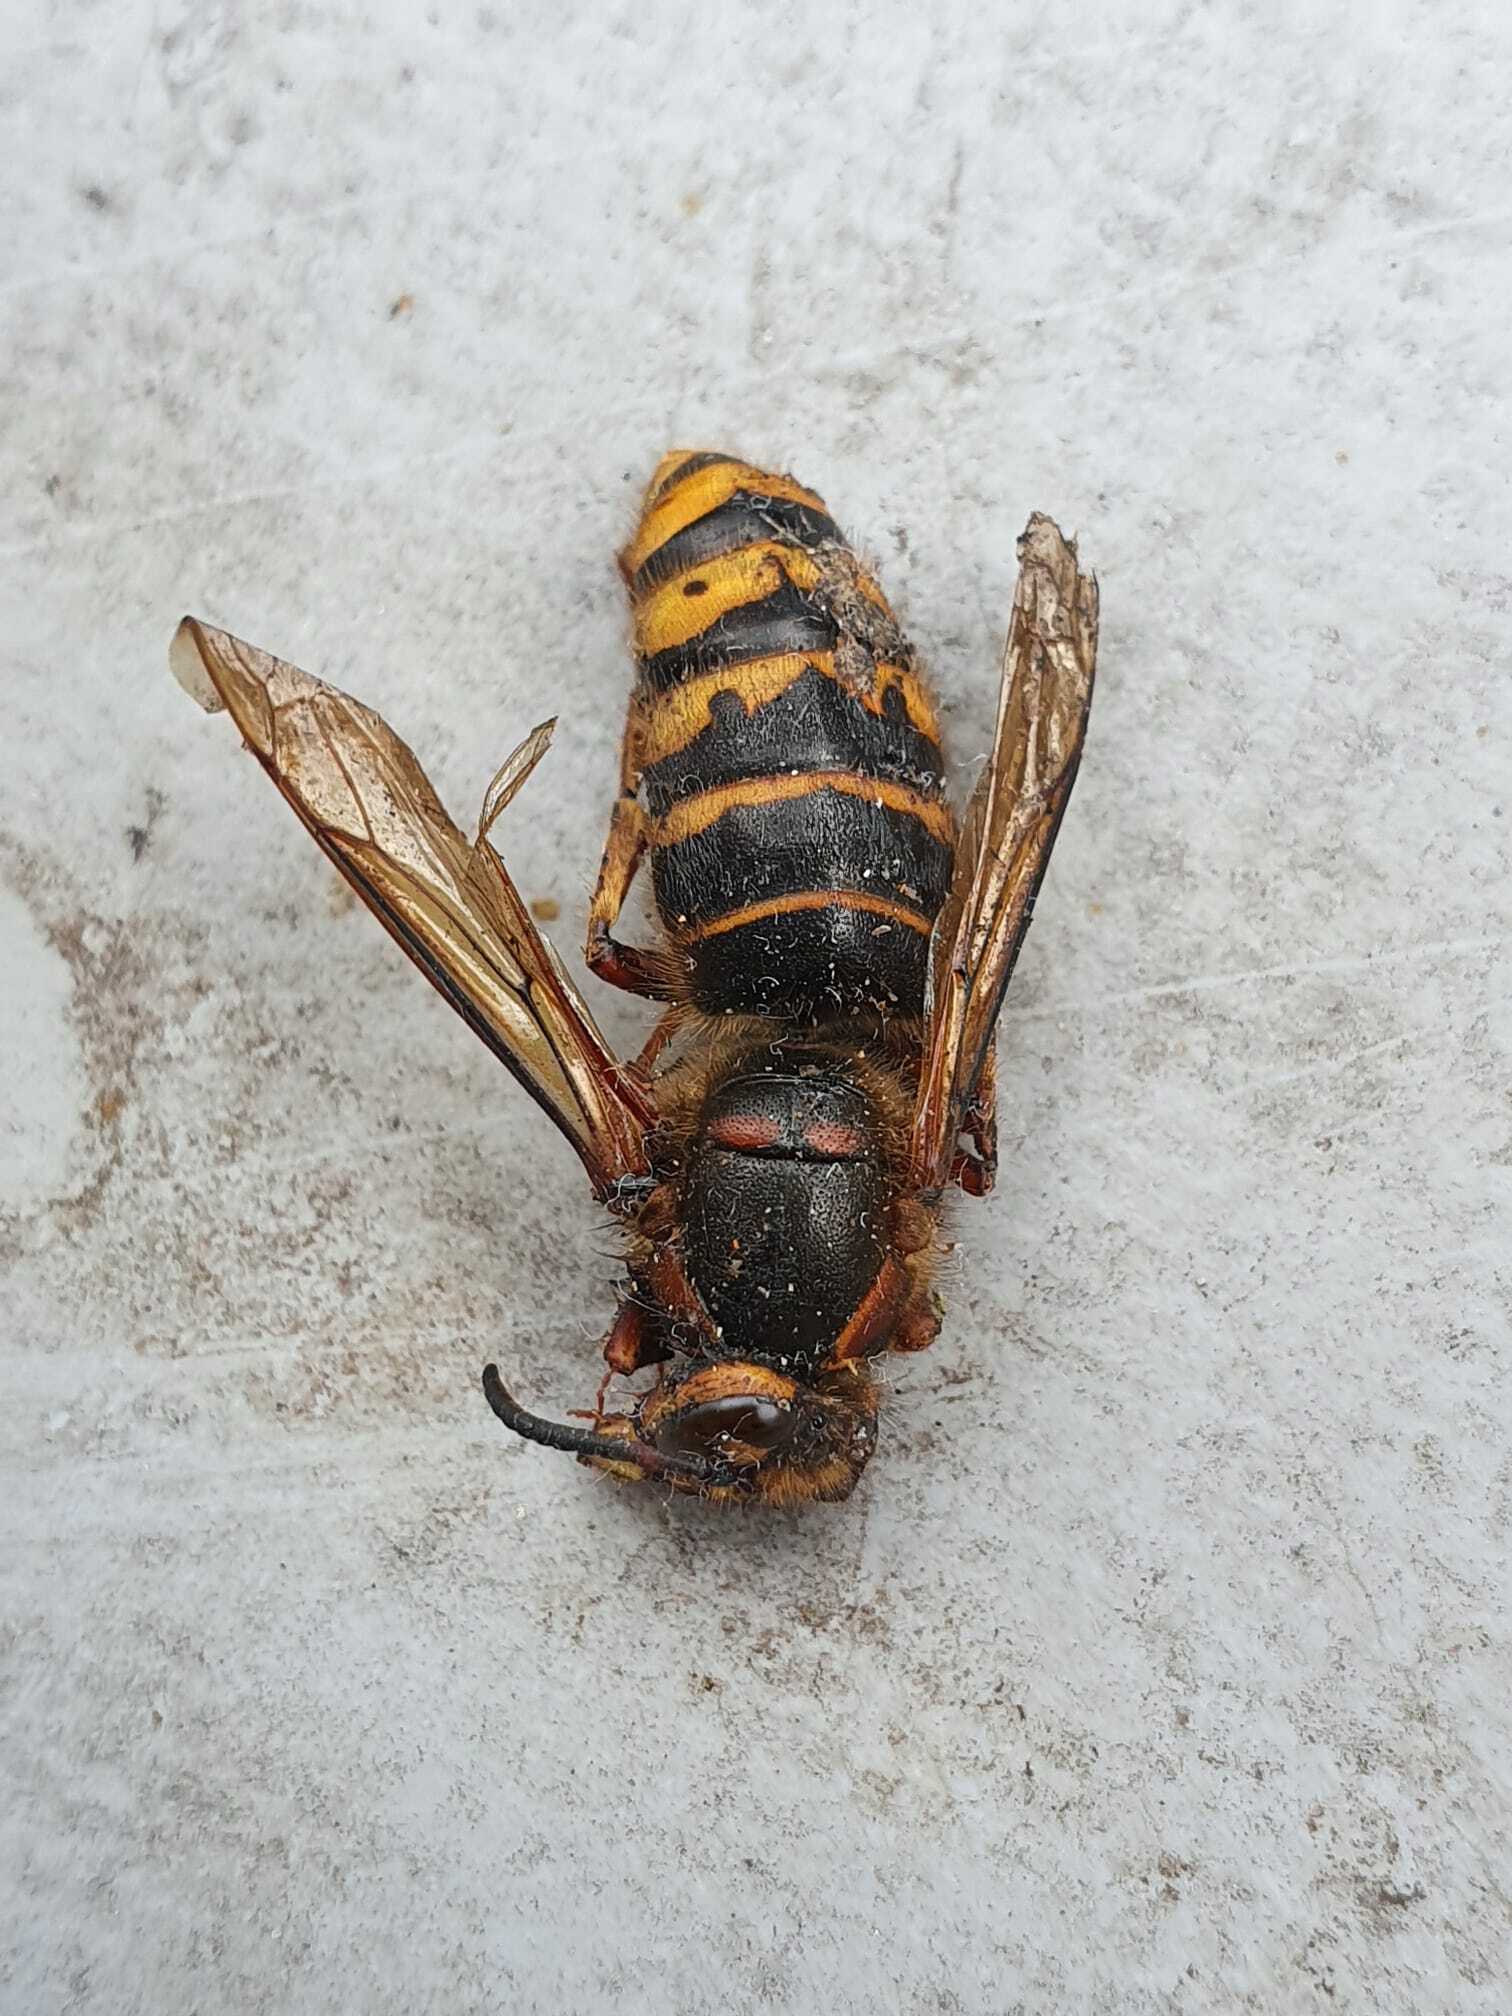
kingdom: Animalia
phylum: Arthropoda
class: Insecta
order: Hymenoptera
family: Vespidae
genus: Dolichovespula
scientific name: Dolichovespula media
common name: Median wasp
